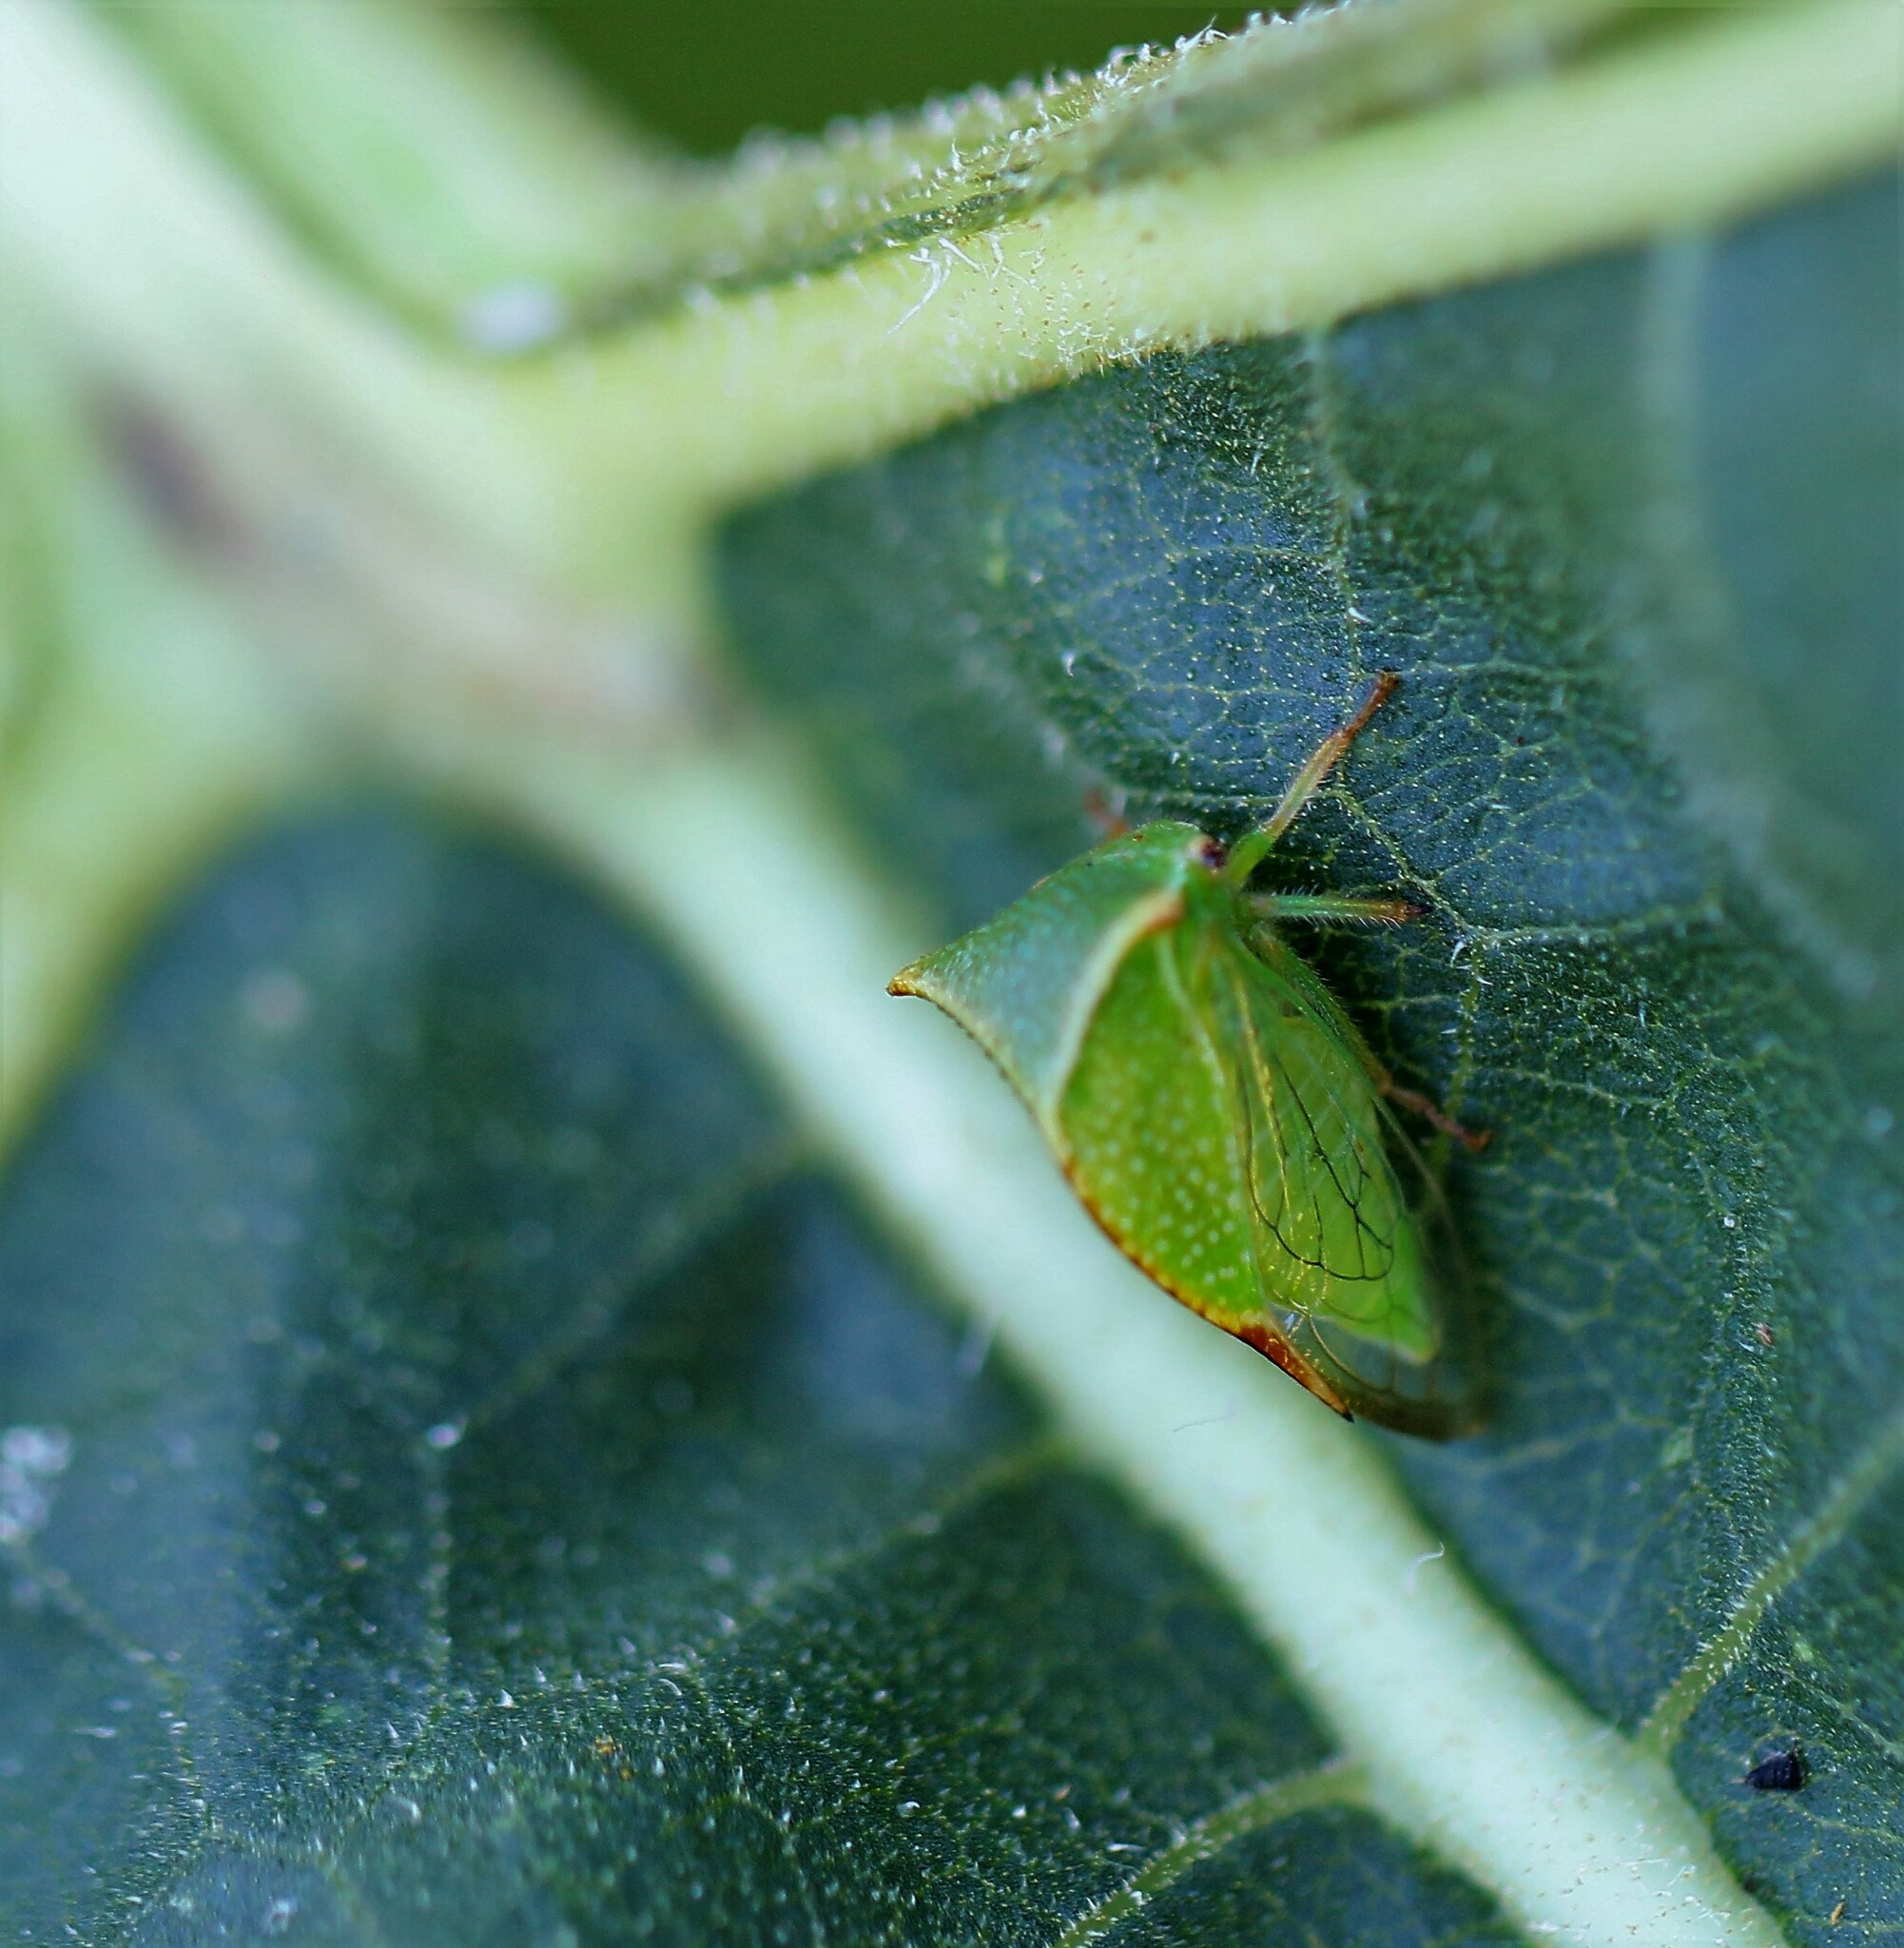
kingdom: Animalia
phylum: Arthropoda
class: Insecta
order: Hemiptera
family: Membracidae
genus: Stictocephala
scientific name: Stictocephala bisonia
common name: American buffalo treehopper
